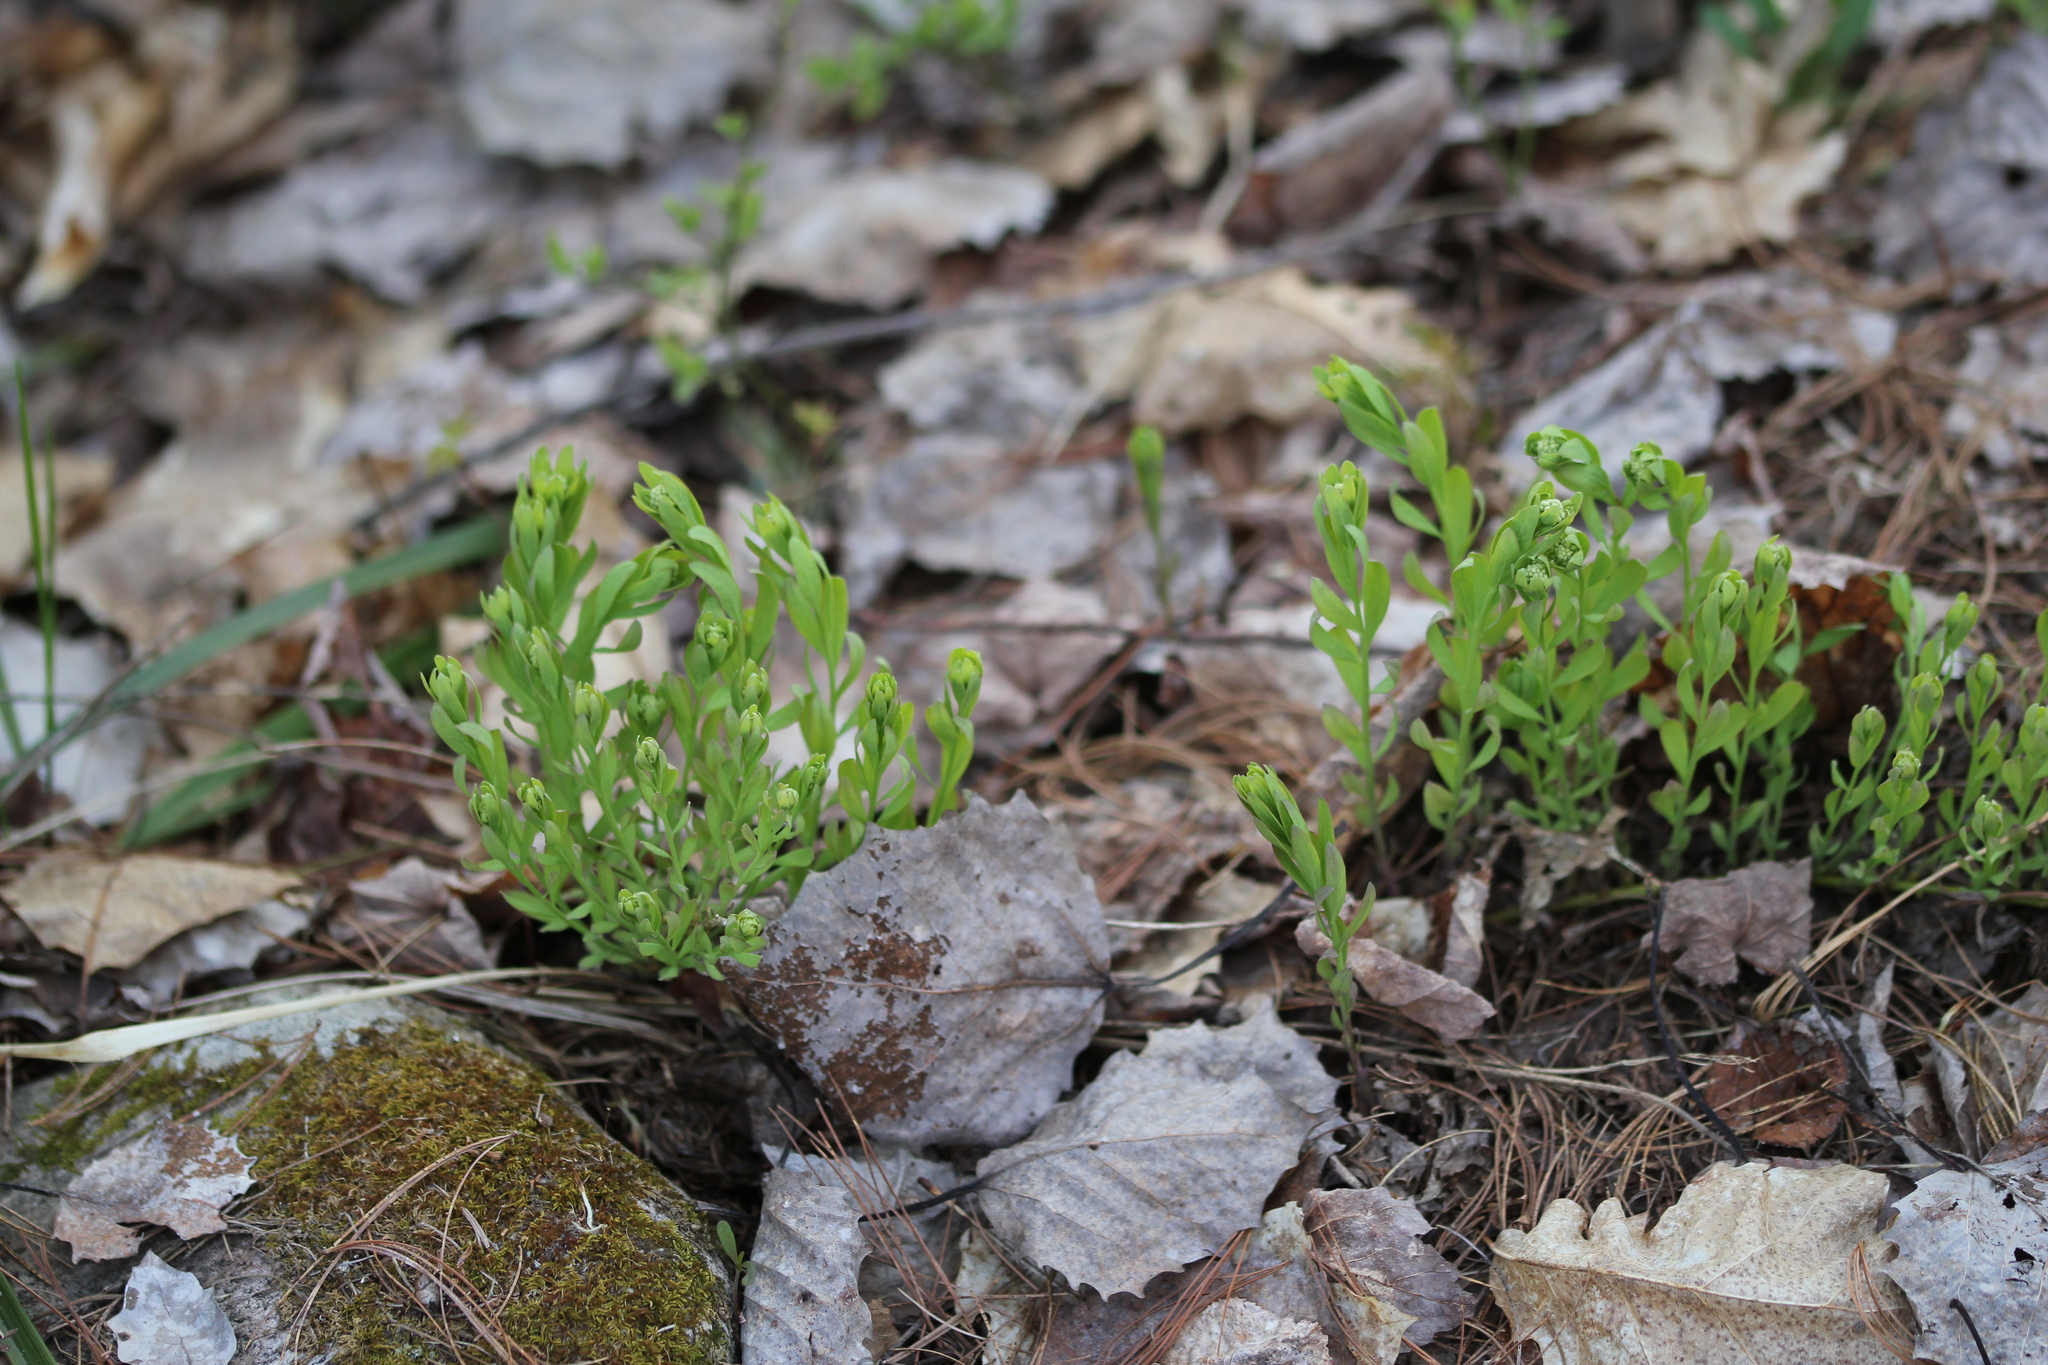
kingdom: Plantae
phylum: Tracheophyta
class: Magnoliopsida
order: Santalales
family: Comandraceae
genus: Comandra
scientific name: Comandra umbellata
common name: Bastard toadflax
